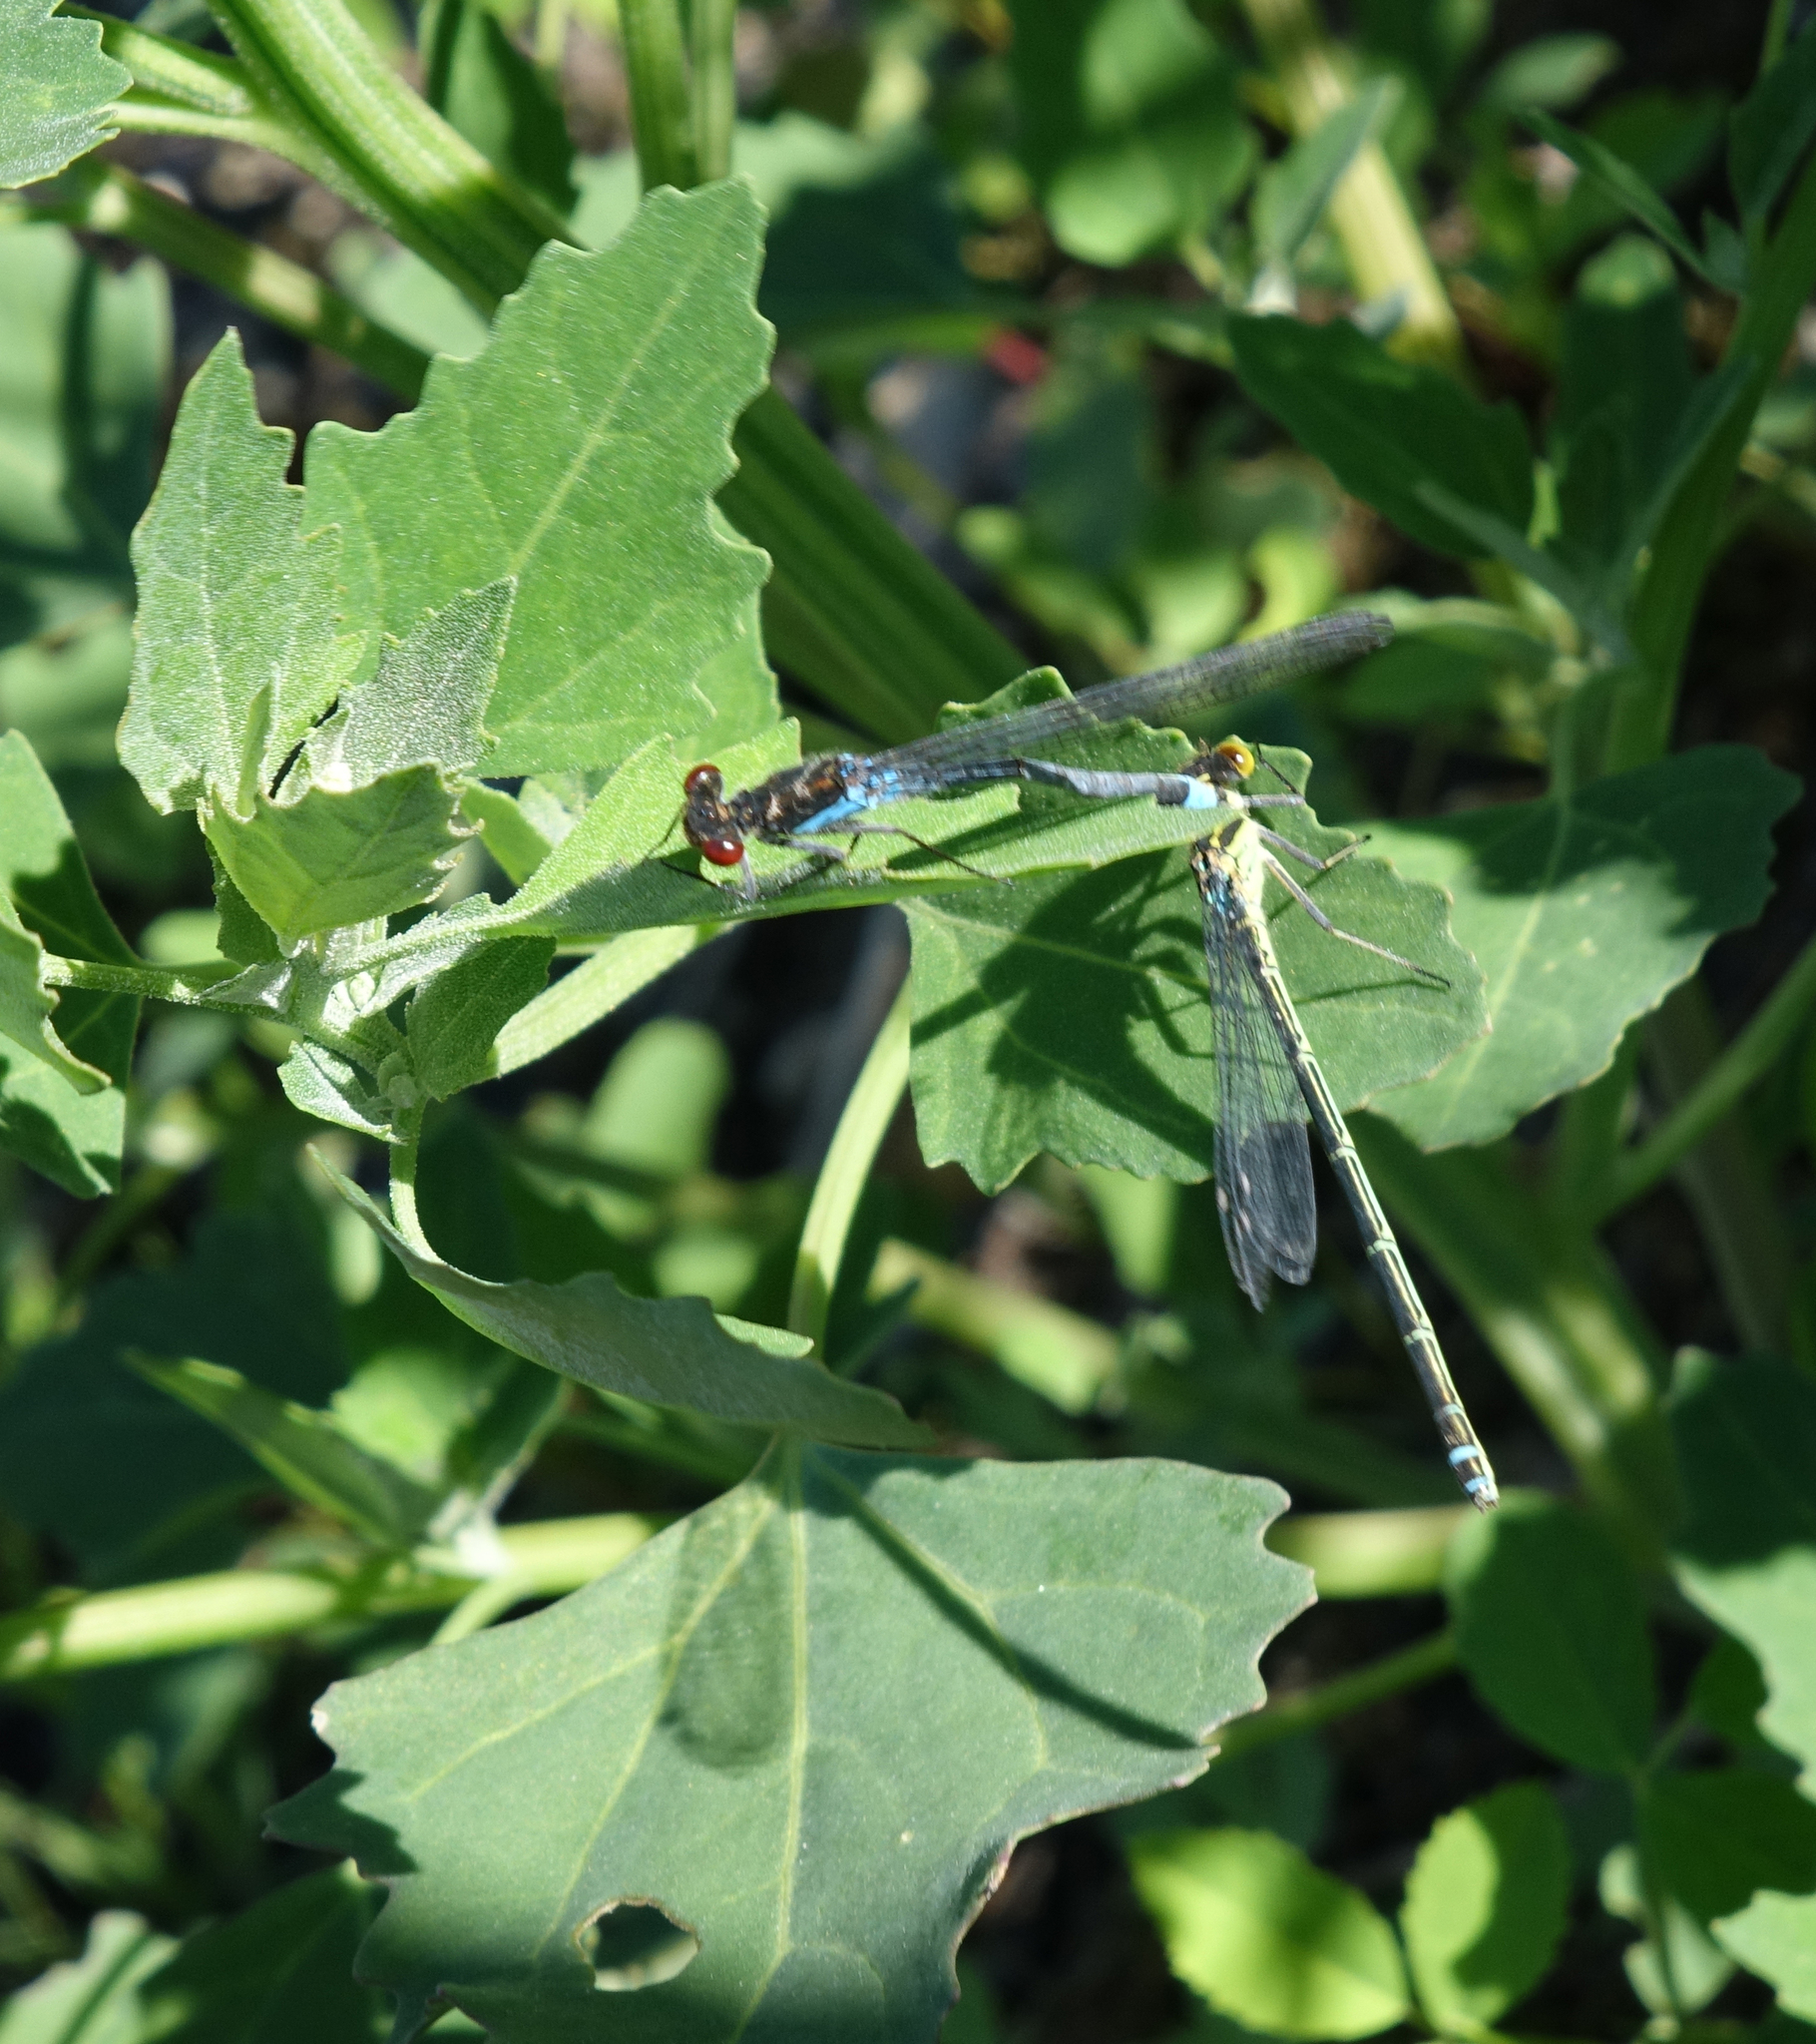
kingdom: Animalia
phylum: Arthropoda
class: Insecta
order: Odonata
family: Coenagrionidae
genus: Erythromma
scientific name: Erythromma najas
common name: Red-eyed damselfly
